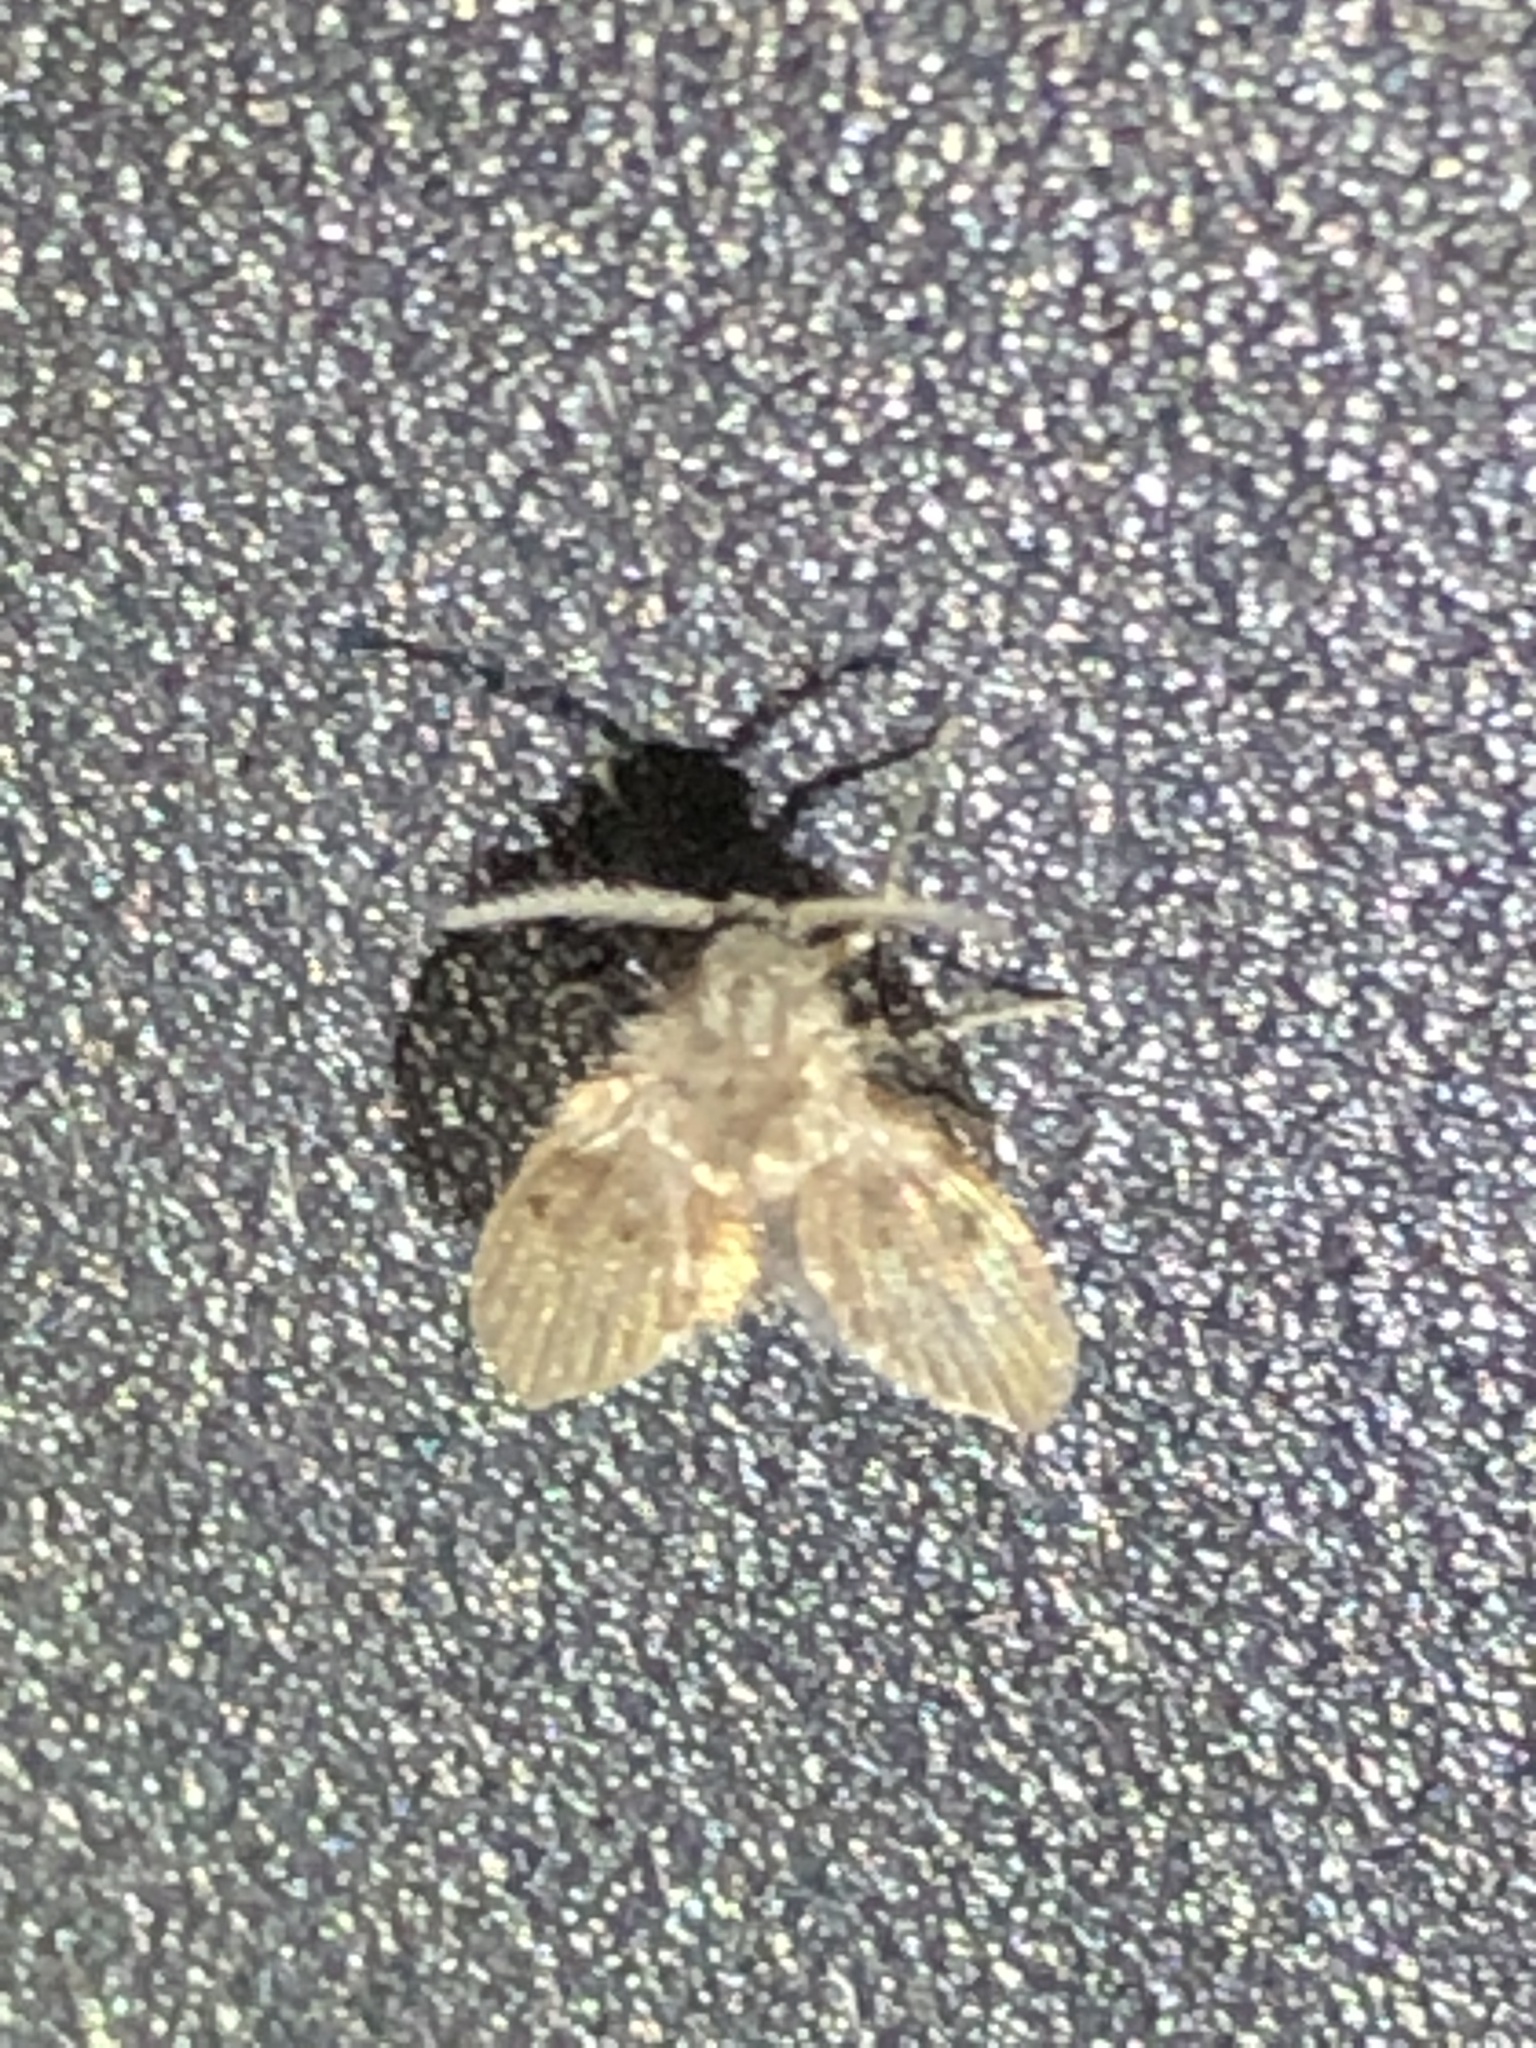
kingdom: Animalia
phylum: Arthropoda
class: Insecta
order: Diptera
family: Psychodidae
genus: Clogmia
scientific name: Clogmia albipunctatus
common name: White-spotted moth fly
